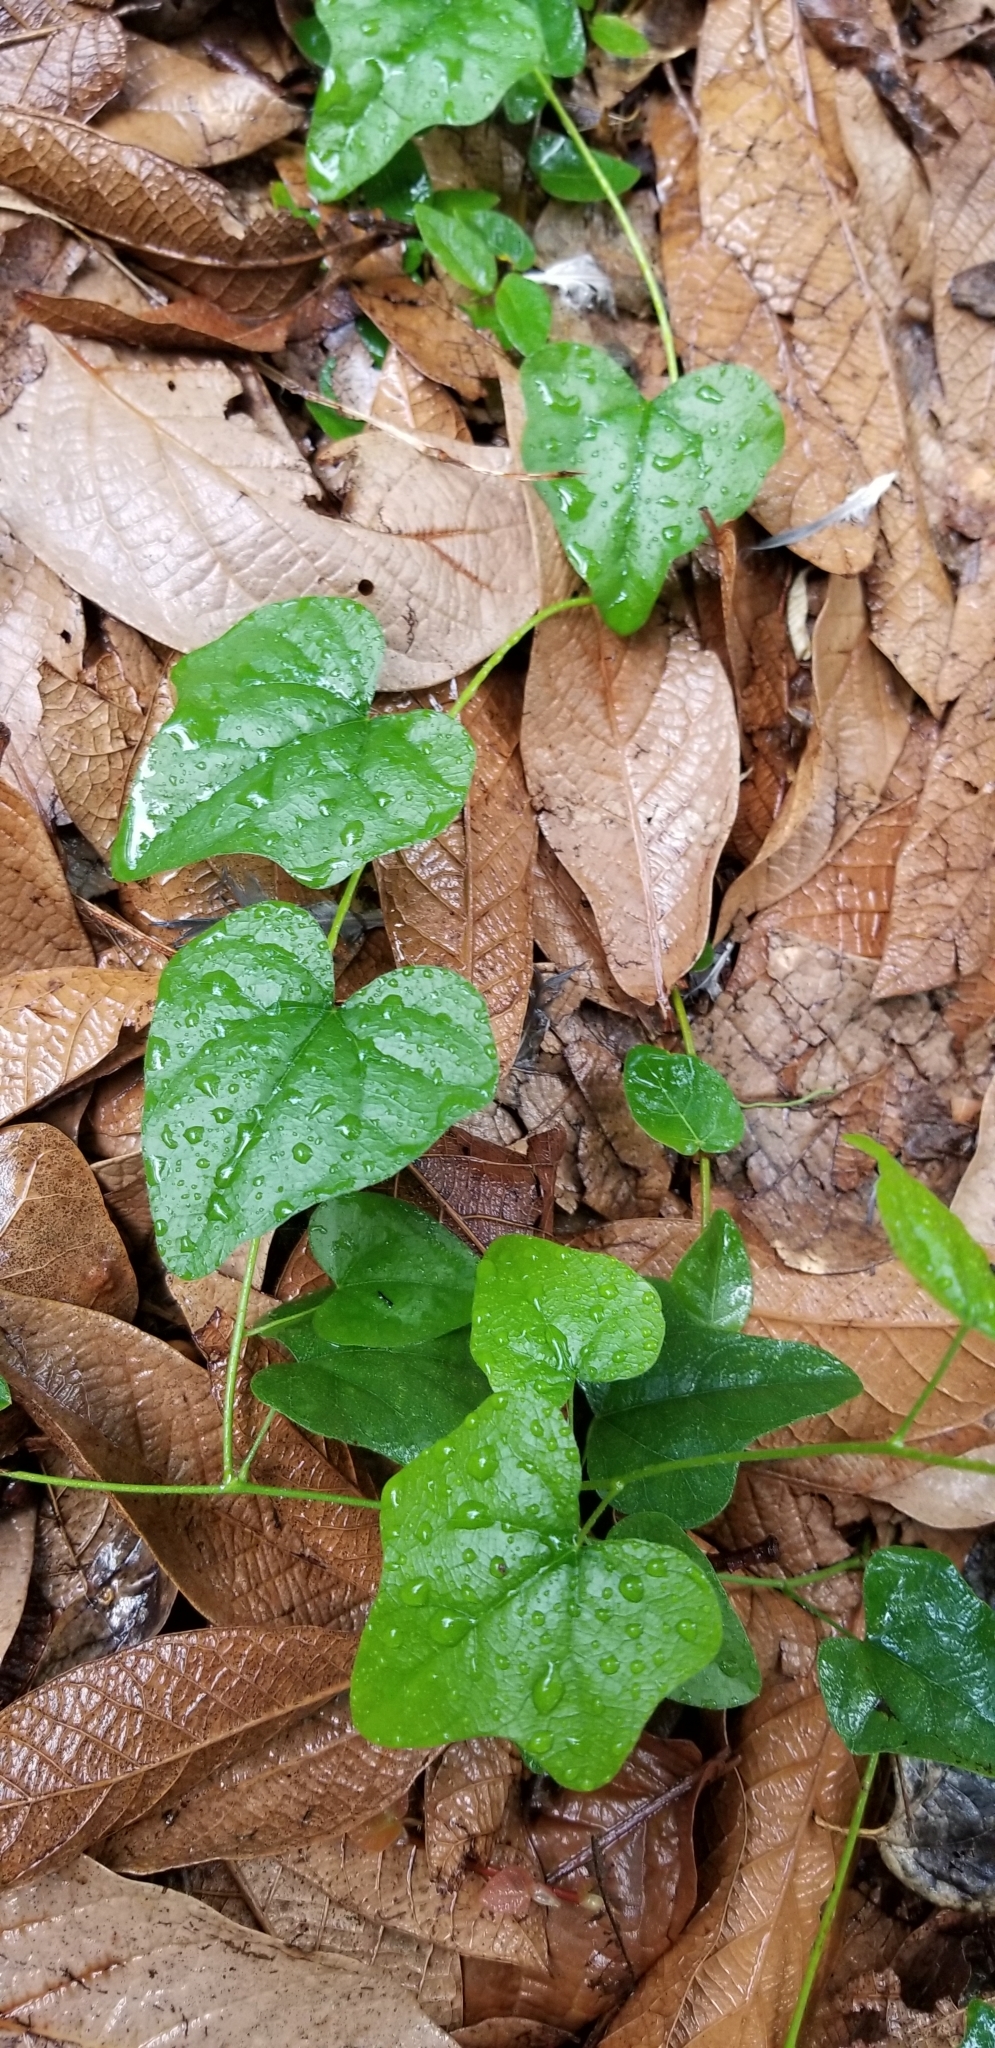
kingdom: Plantae
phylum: Tracheophyta
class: Magnoliopsida
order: Ranunculales
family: Menispermaceae
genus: Cocculus
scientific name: Cocculus carolinus
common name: Carolina moonseed
